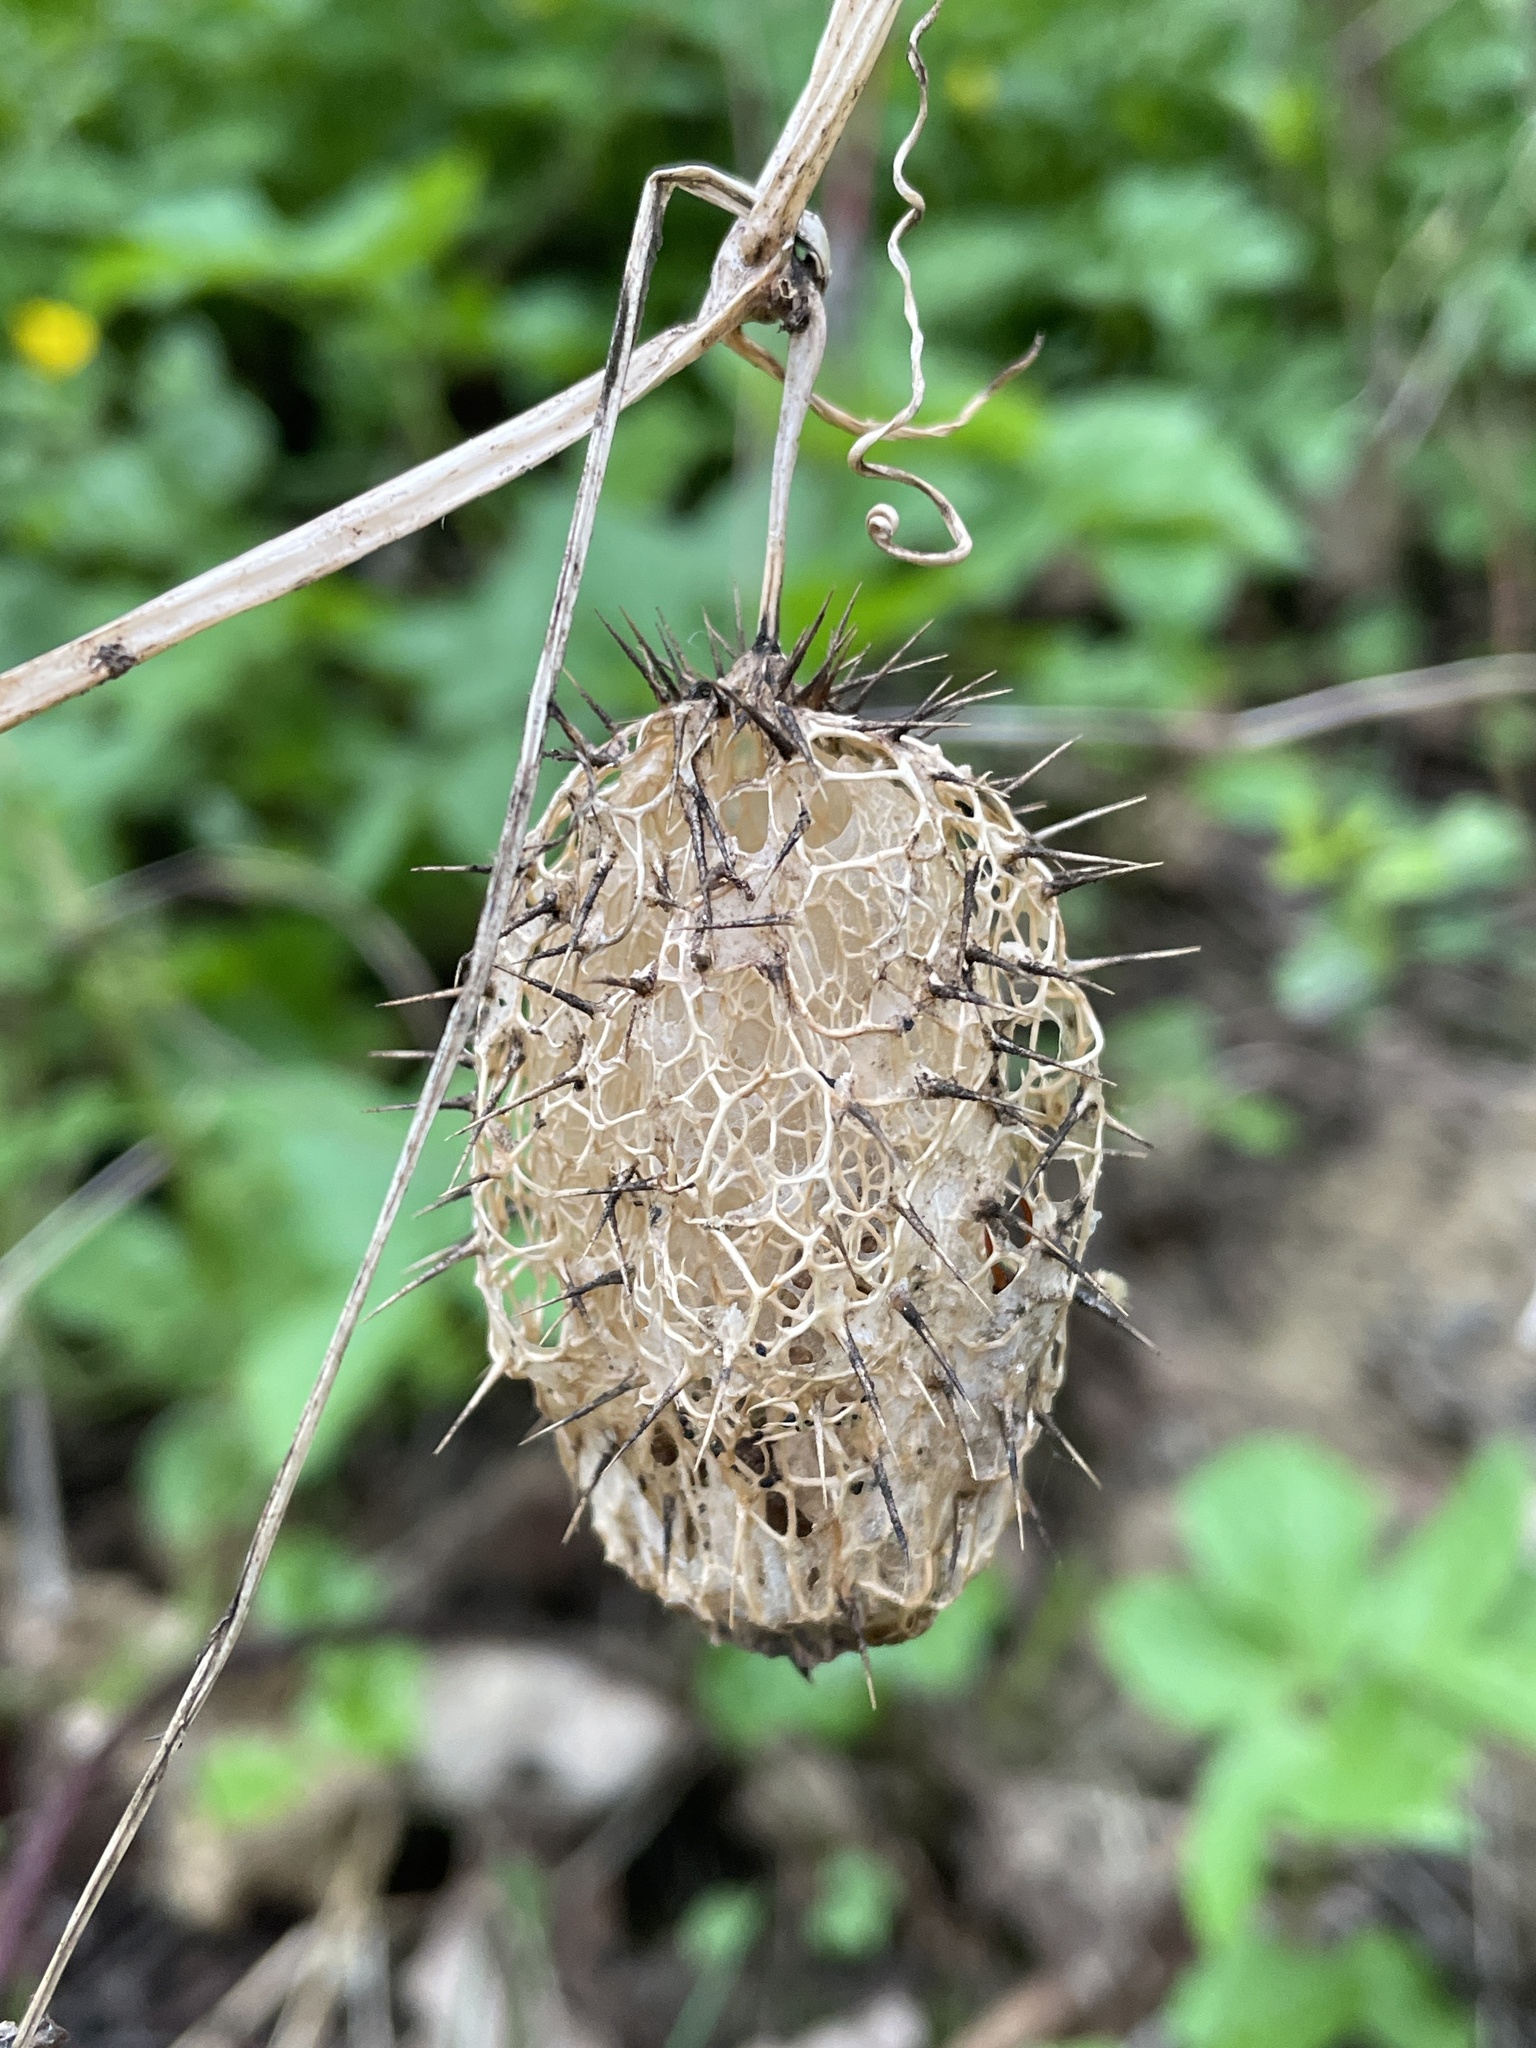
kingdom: Plantae
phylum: Tracheophyta
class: Magnoliopsida
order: Cucurbitales
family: Cucurbitaceae
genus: Echinocystis
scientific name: Echinocystis lobata
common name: Wild cucumber
